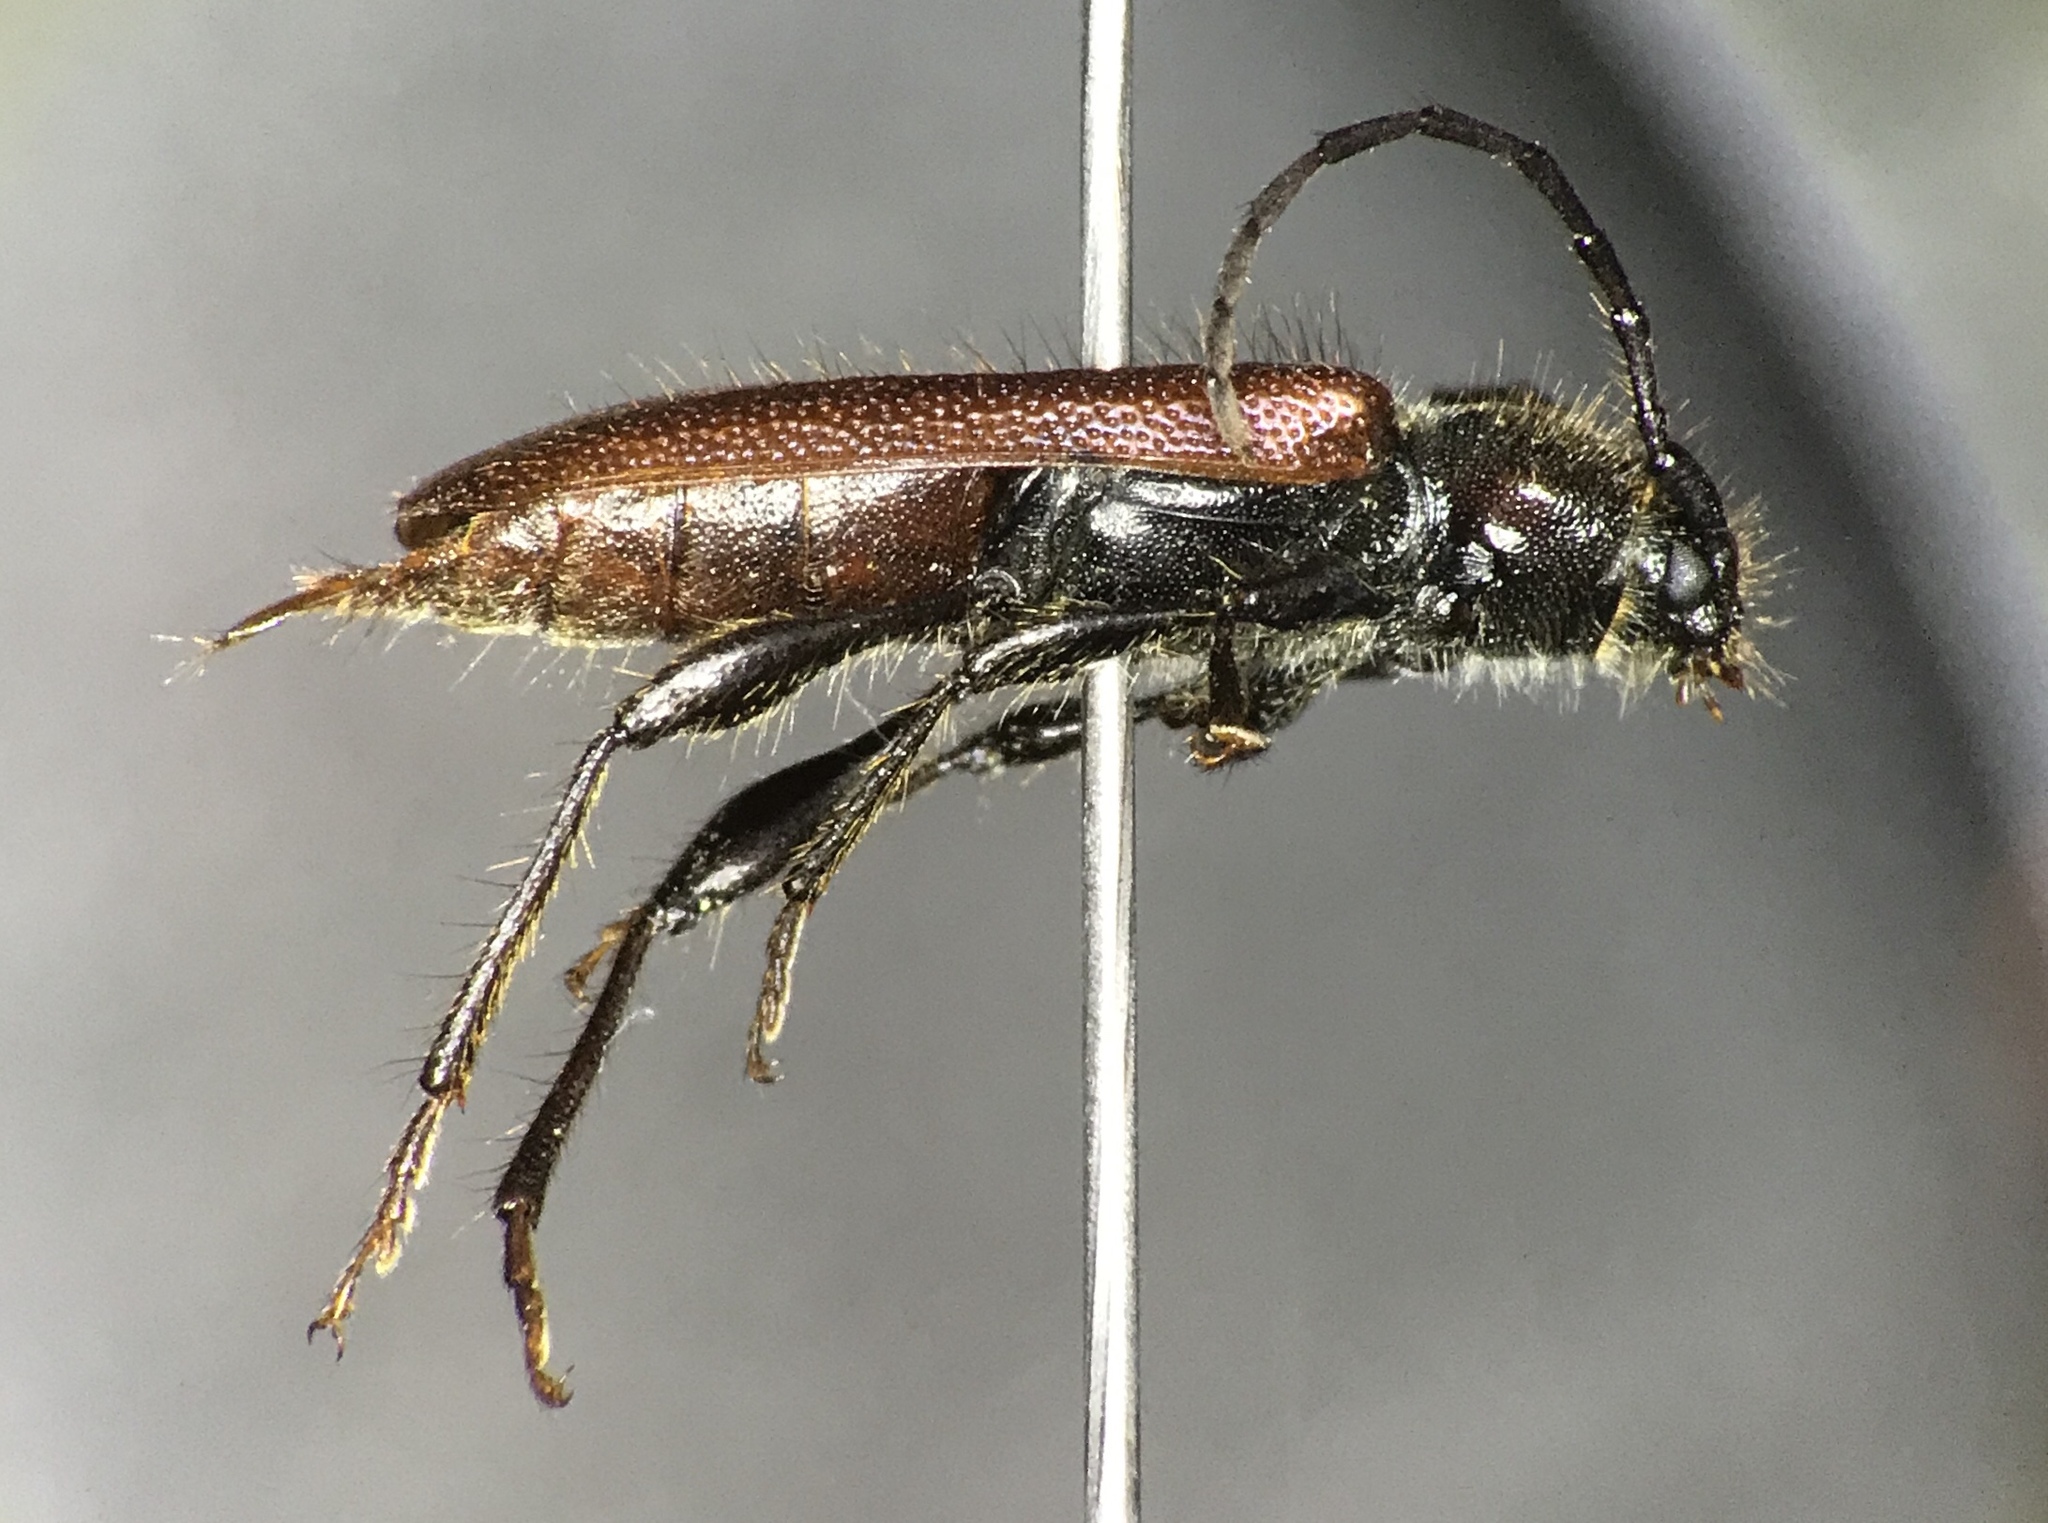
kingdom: Animalia
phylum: Arthropoda
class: Insecta
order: Coleoptera
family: Cerambycidae
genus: Callidiellum
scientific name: Callidiellum rufipennis
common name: Longhorn beetle
